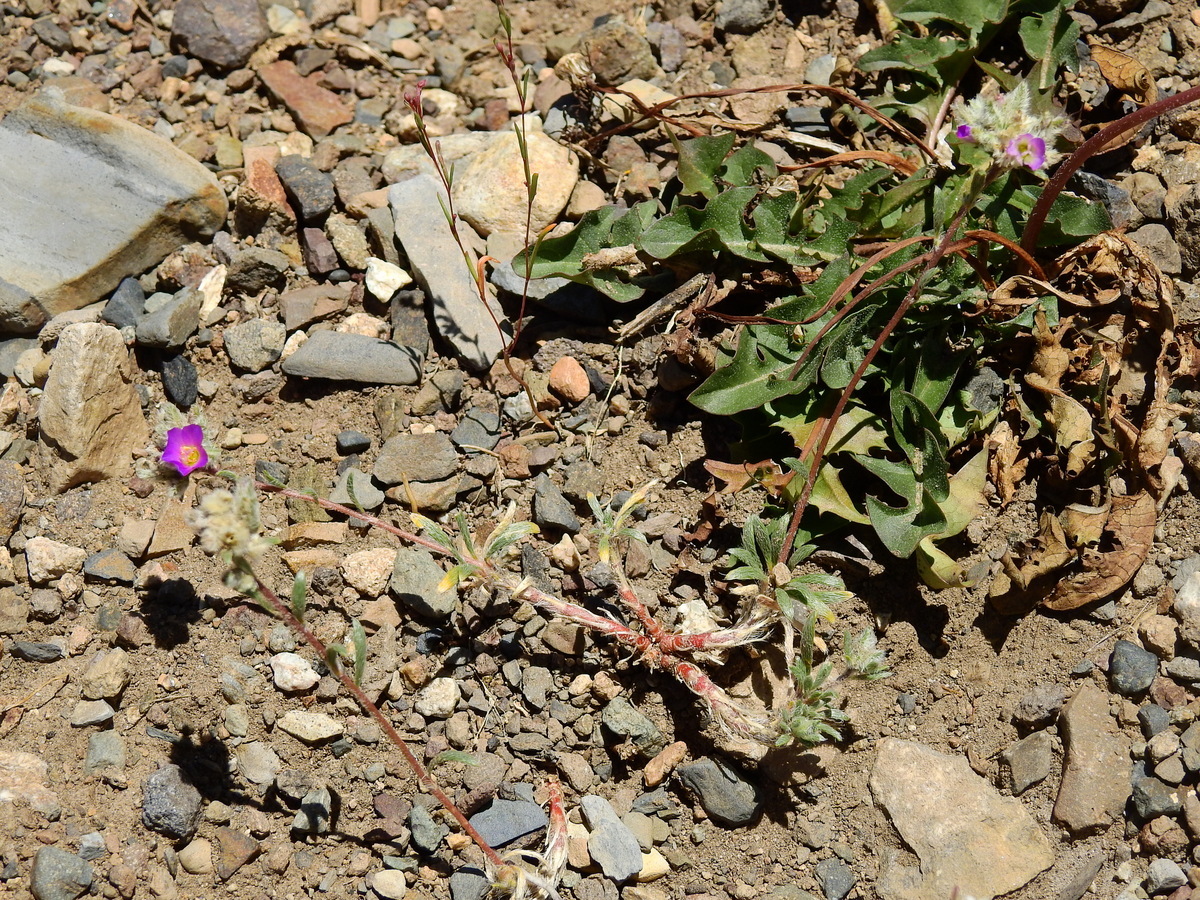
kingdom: Plantae
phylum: Tracheophyta
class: Magnoliopsida
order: Caryophyllales
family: Montiaceae
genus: Montiopsis
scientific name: Montiopsis umbellata
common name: Rock-purslane
